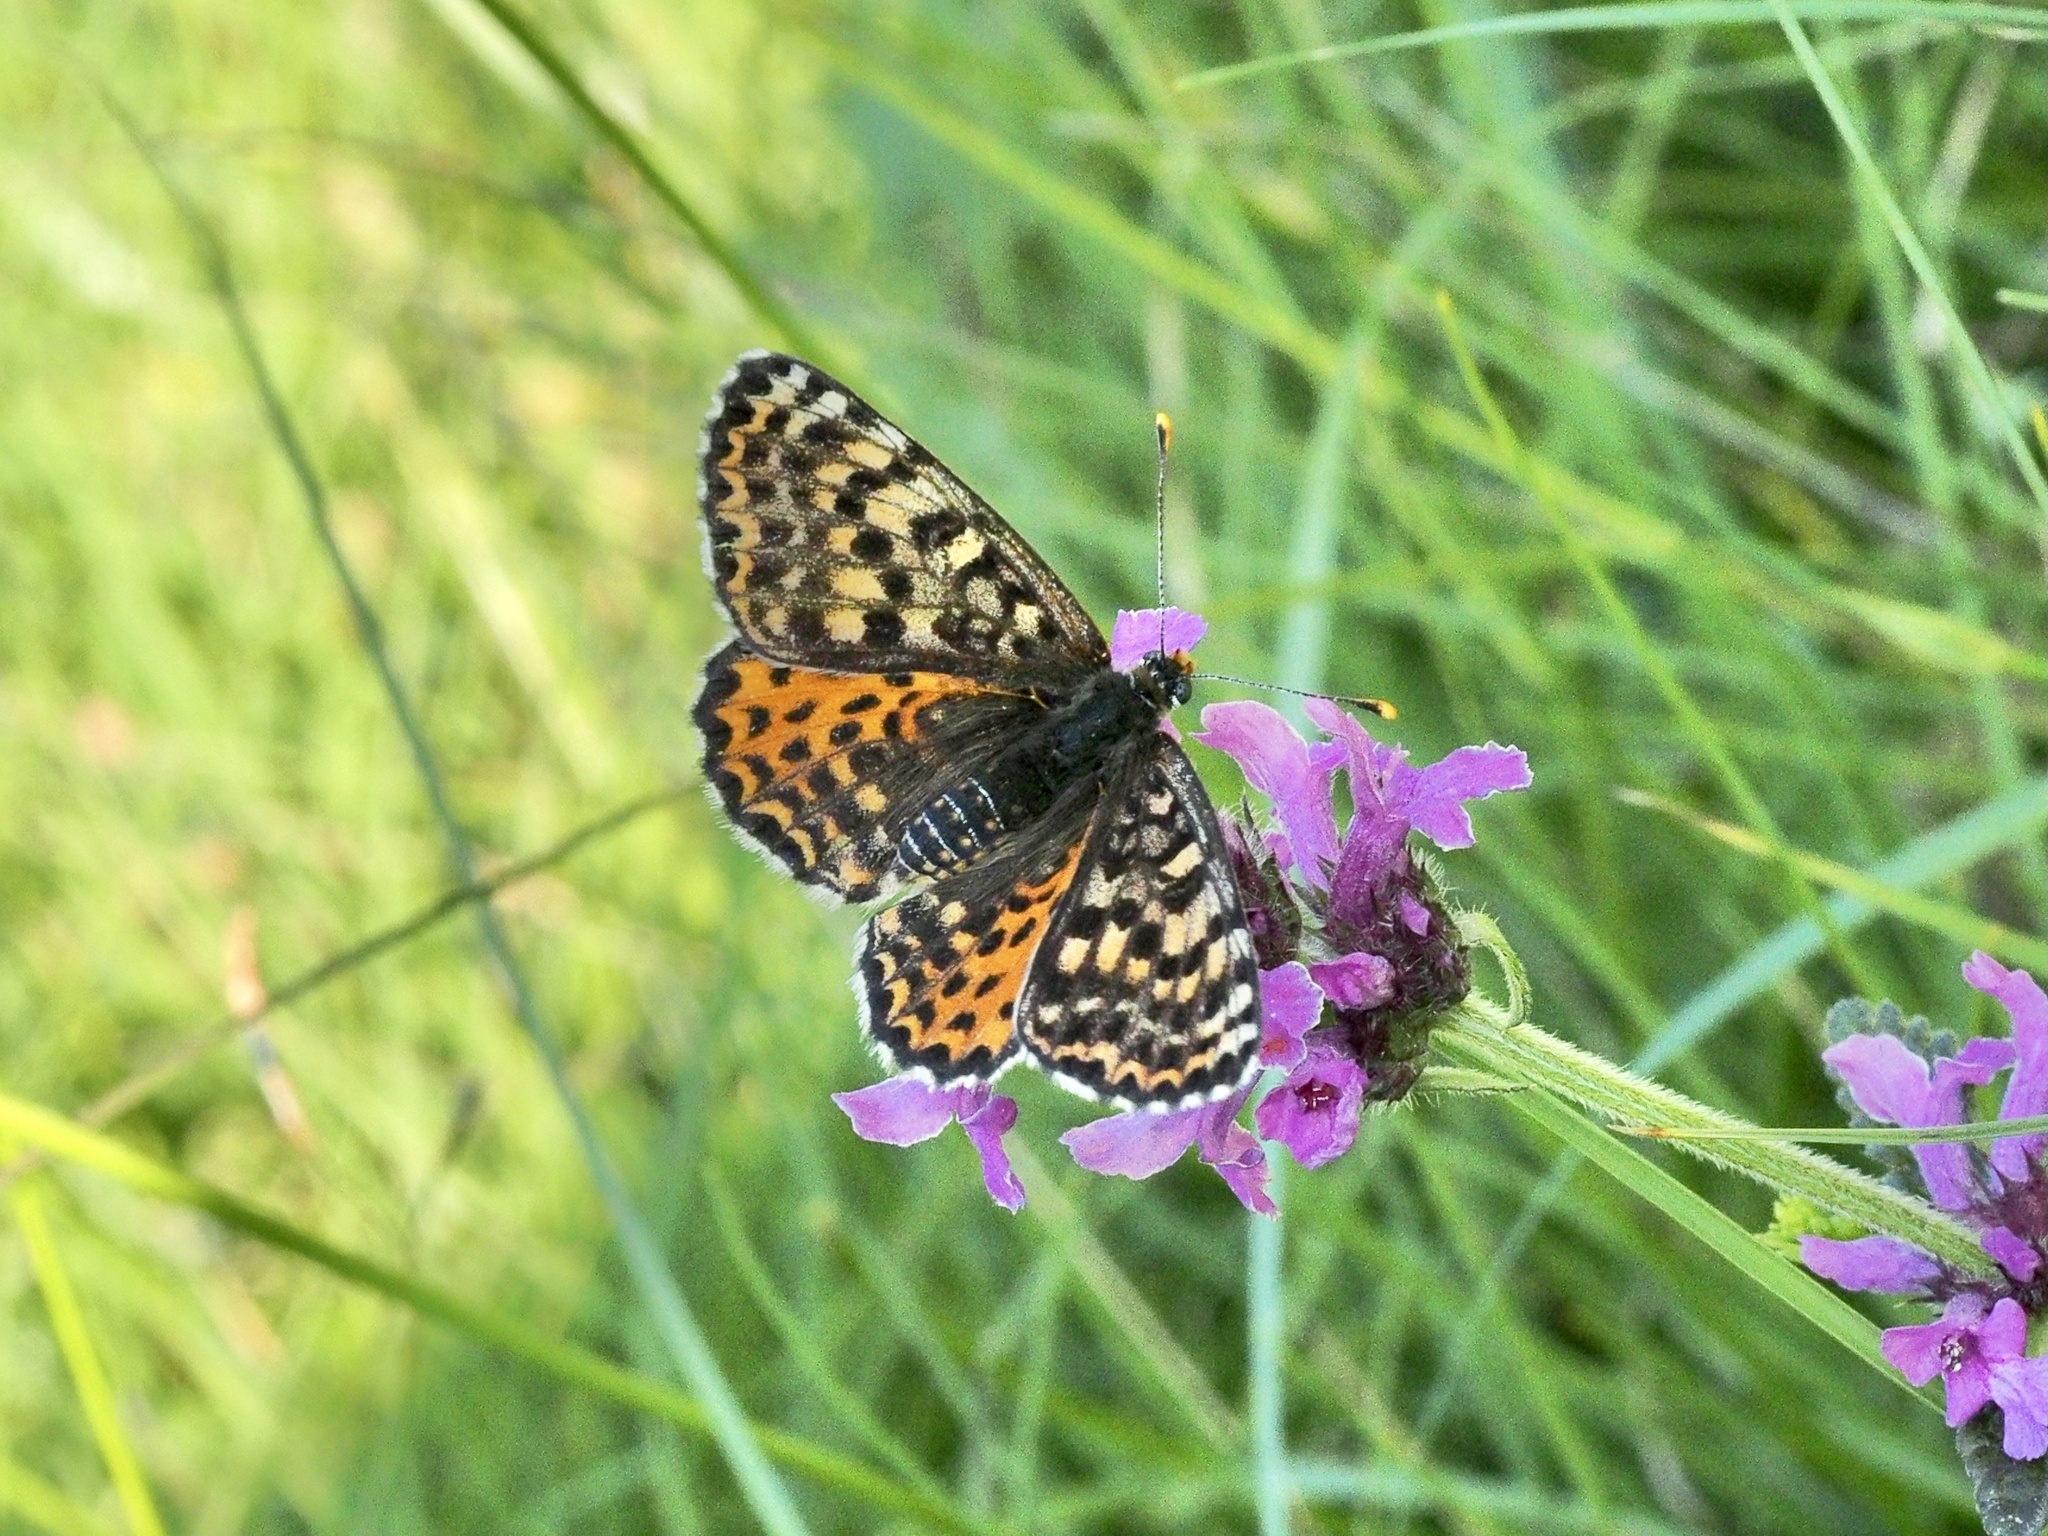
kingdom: Animalia
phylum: Arthropoda
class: Insecta
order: Lepidoptera
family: Nymphalidae
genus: Melitaea
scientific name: Melitaea didyma
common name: Spotted fritillary
